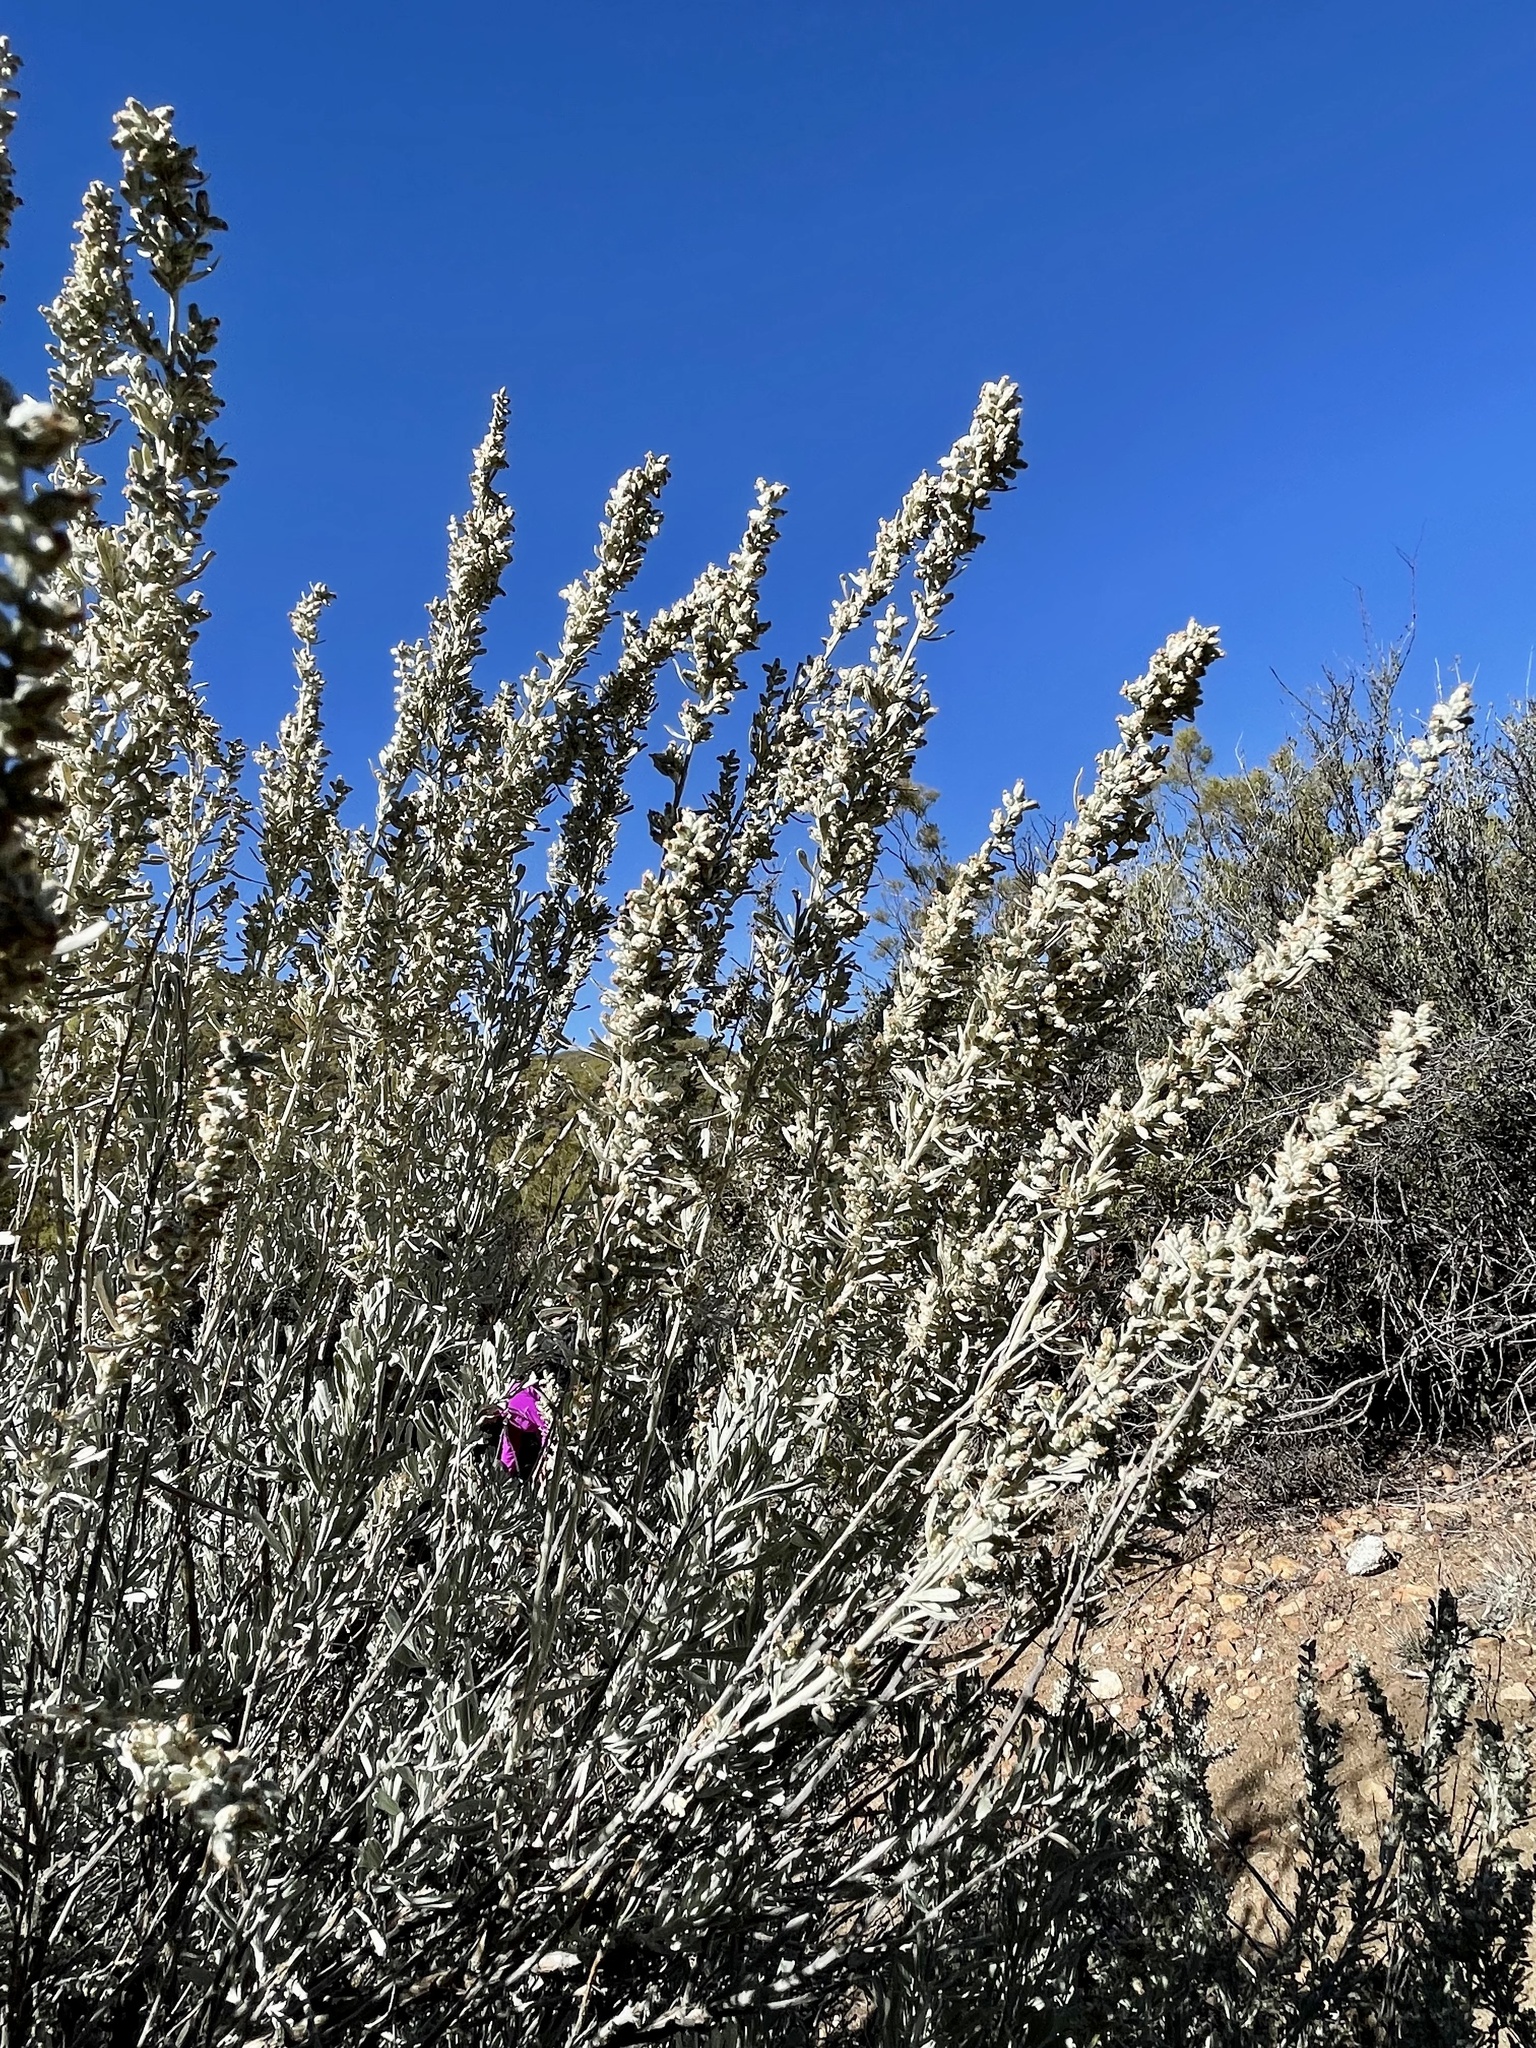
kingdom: Plantae
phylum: Tracheophyta
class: Magnoliopsida
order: Asterales
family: Asteraceae
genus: Artemisia
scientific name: Artemisia tridentata
